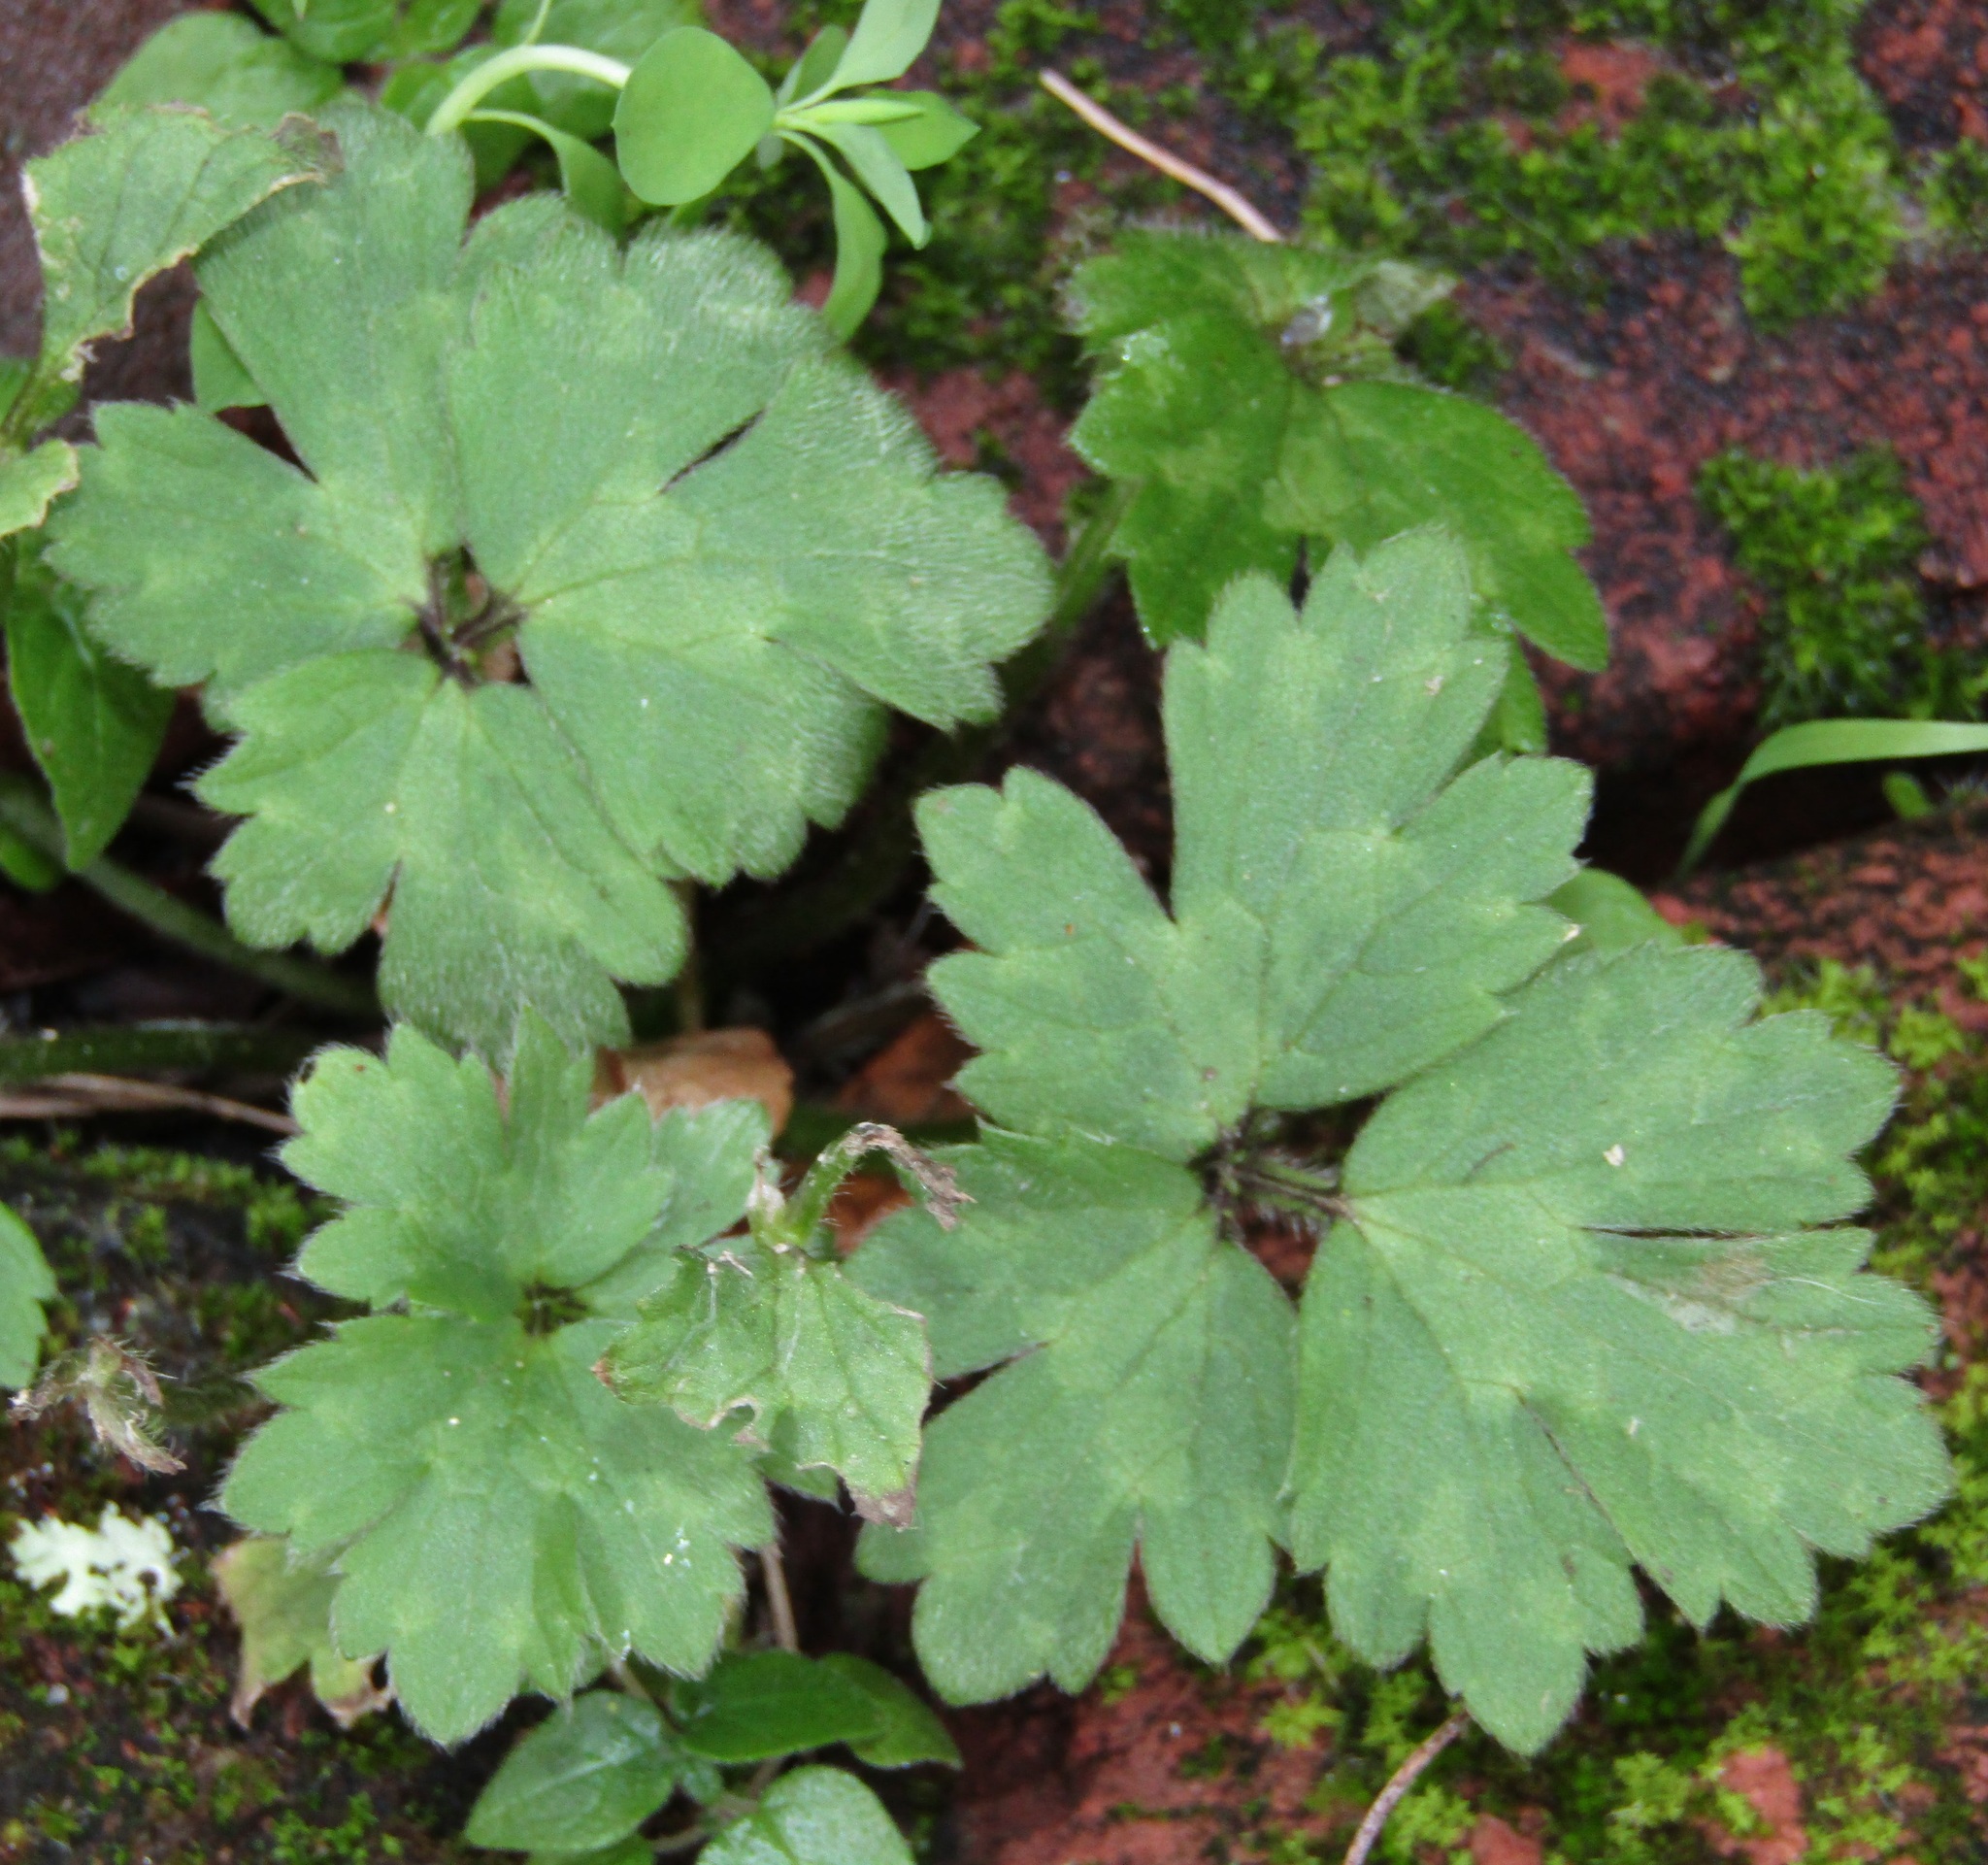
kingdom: Plantae
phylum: Tracheophyta
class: Magnoliopsida
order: Ranunculales
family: Ranunculaceae
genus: Ranunculus
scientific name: Ranunculus repens
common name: Creeping buttercup
